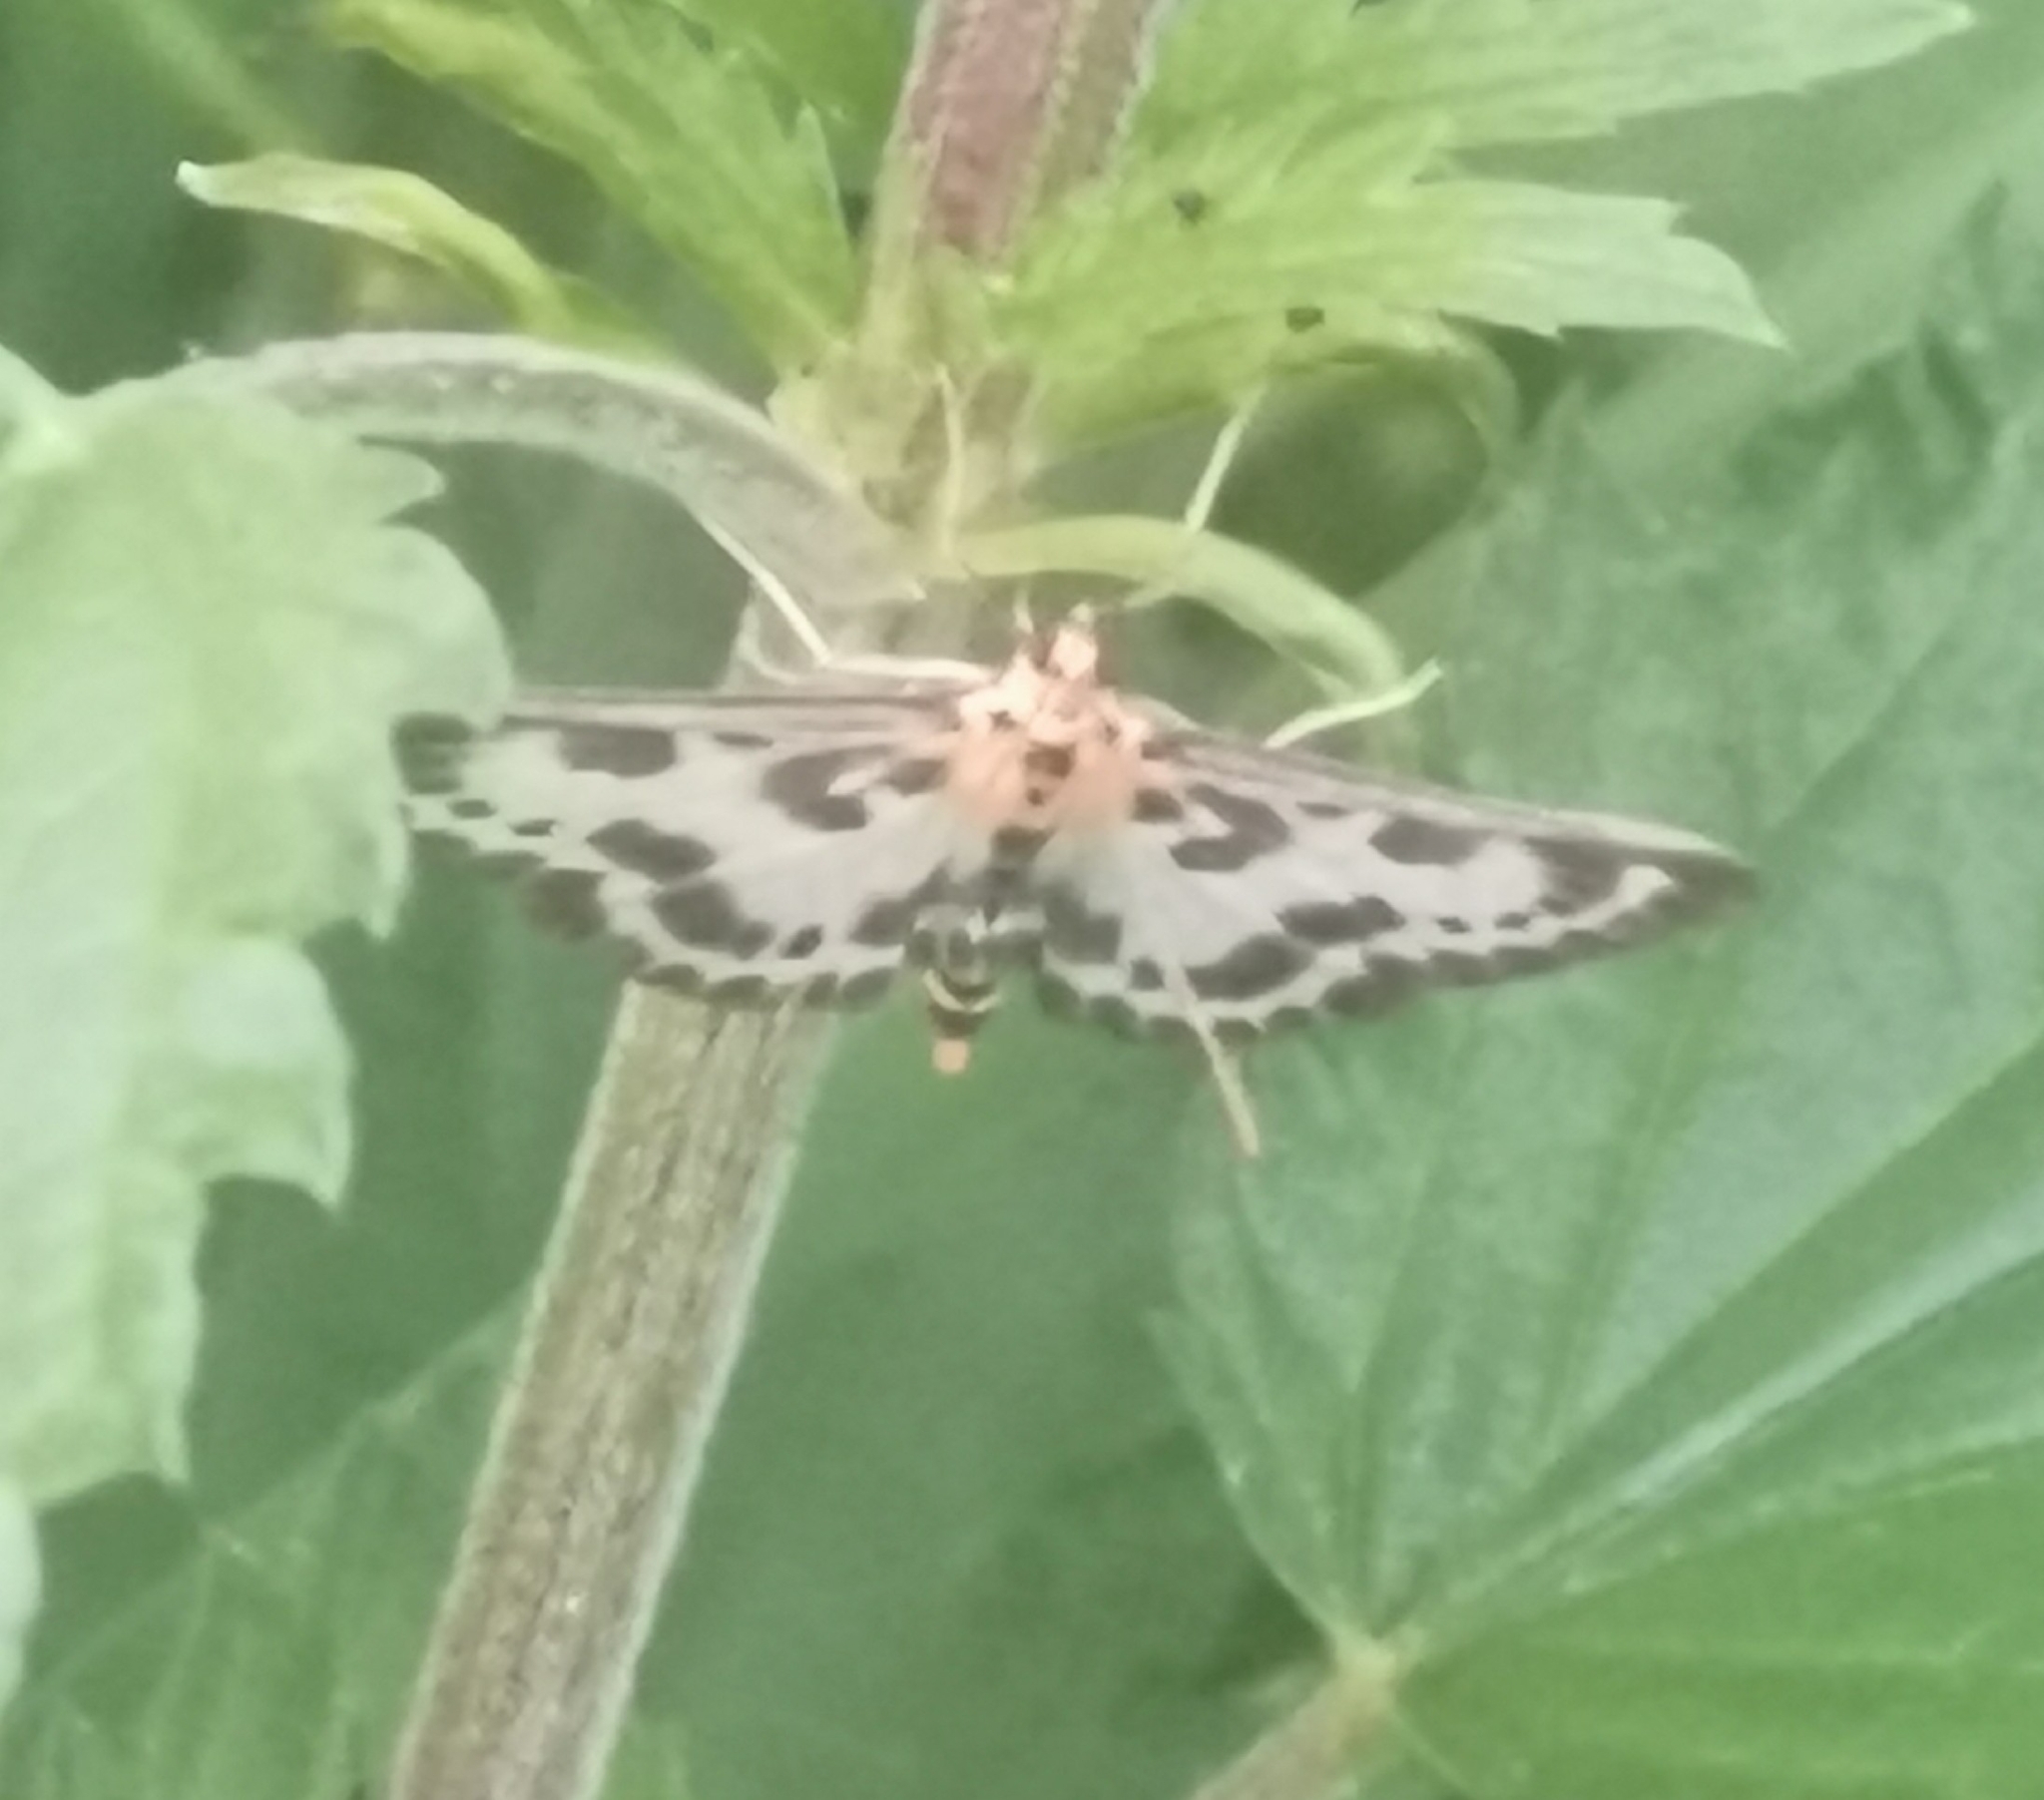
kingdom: Animalia
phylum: Arthropoda
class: Insecta
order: Lepidoptera
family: Crambidae
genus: Anania
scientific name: Anania hortulata
